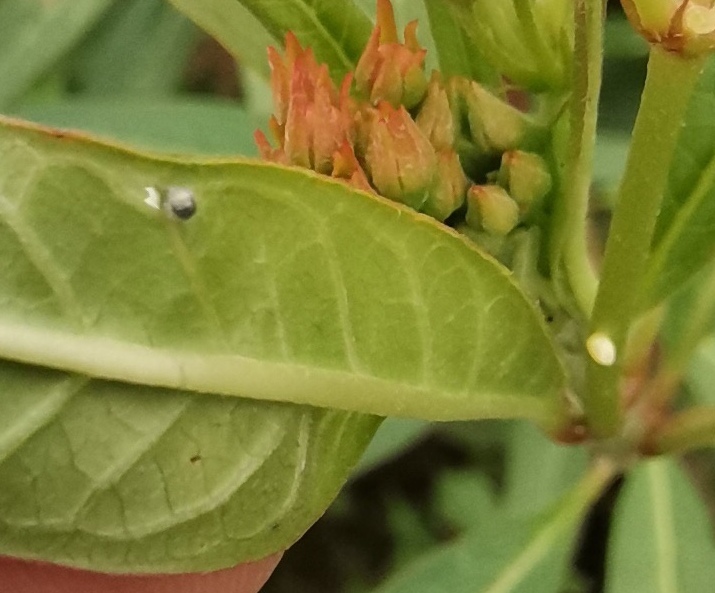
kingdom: Animalia
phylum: Arthropoda
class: Insecta
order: Lepidoptera
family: Nymphalidae
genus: Danaus
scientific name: Danaus plexippus
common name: Monarch
